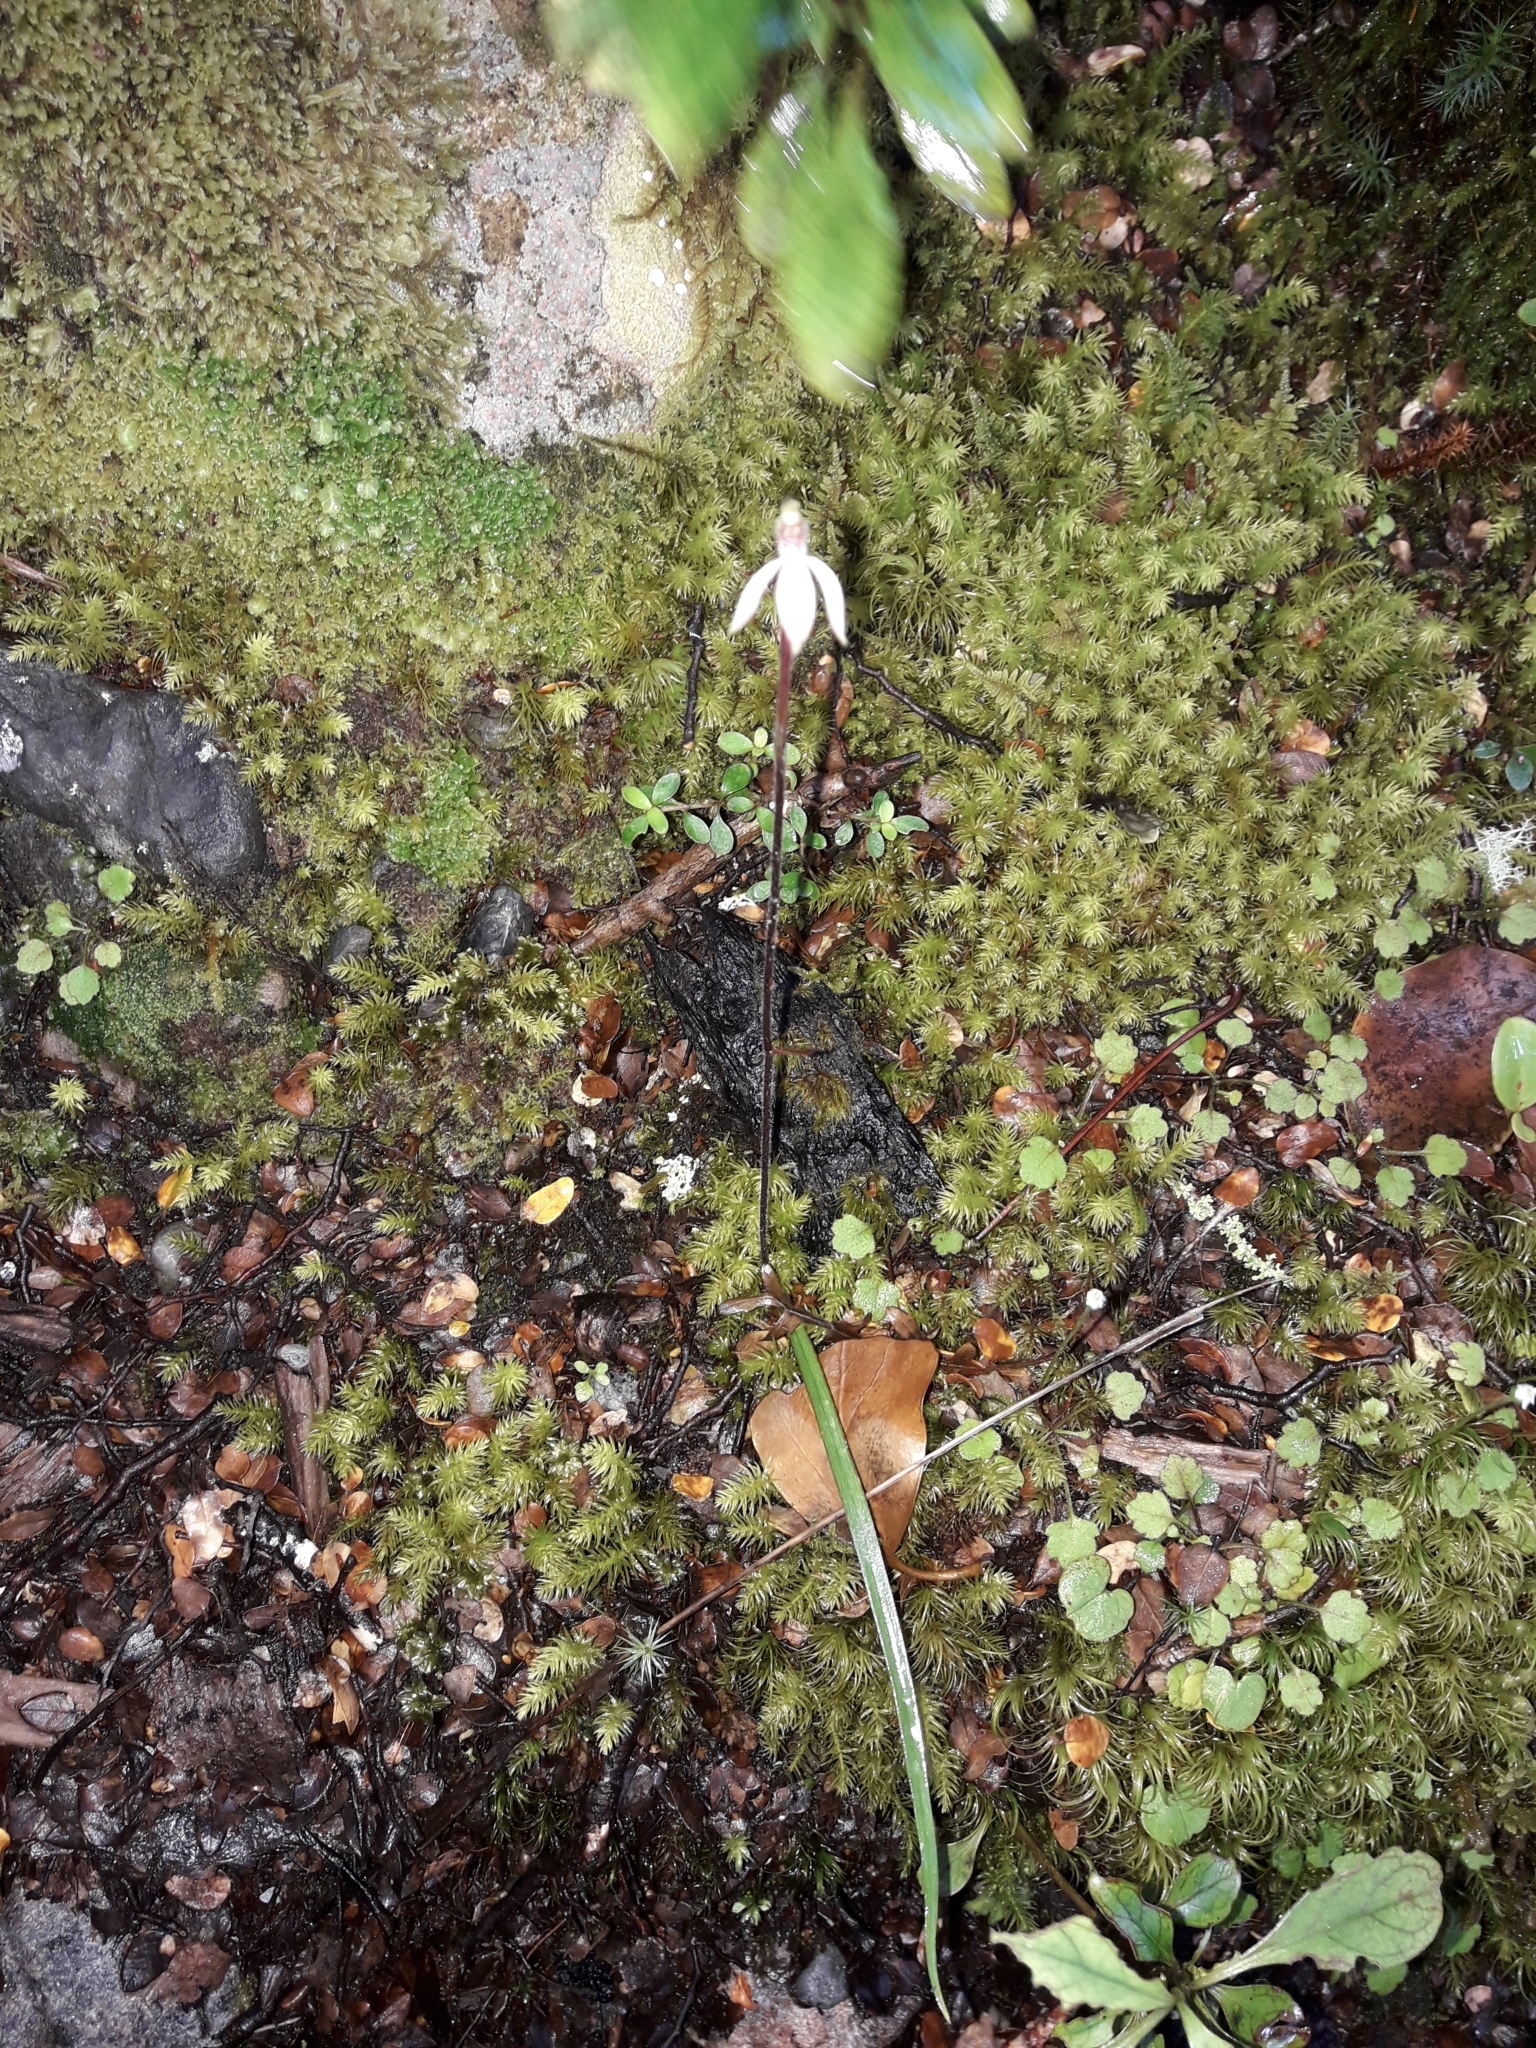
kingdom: Plantae
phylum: Tracheophyta
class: Liliopsida
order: Asparagales
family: Orchidaceae
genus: Caladenia
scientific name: Caladenia chlorostyla
